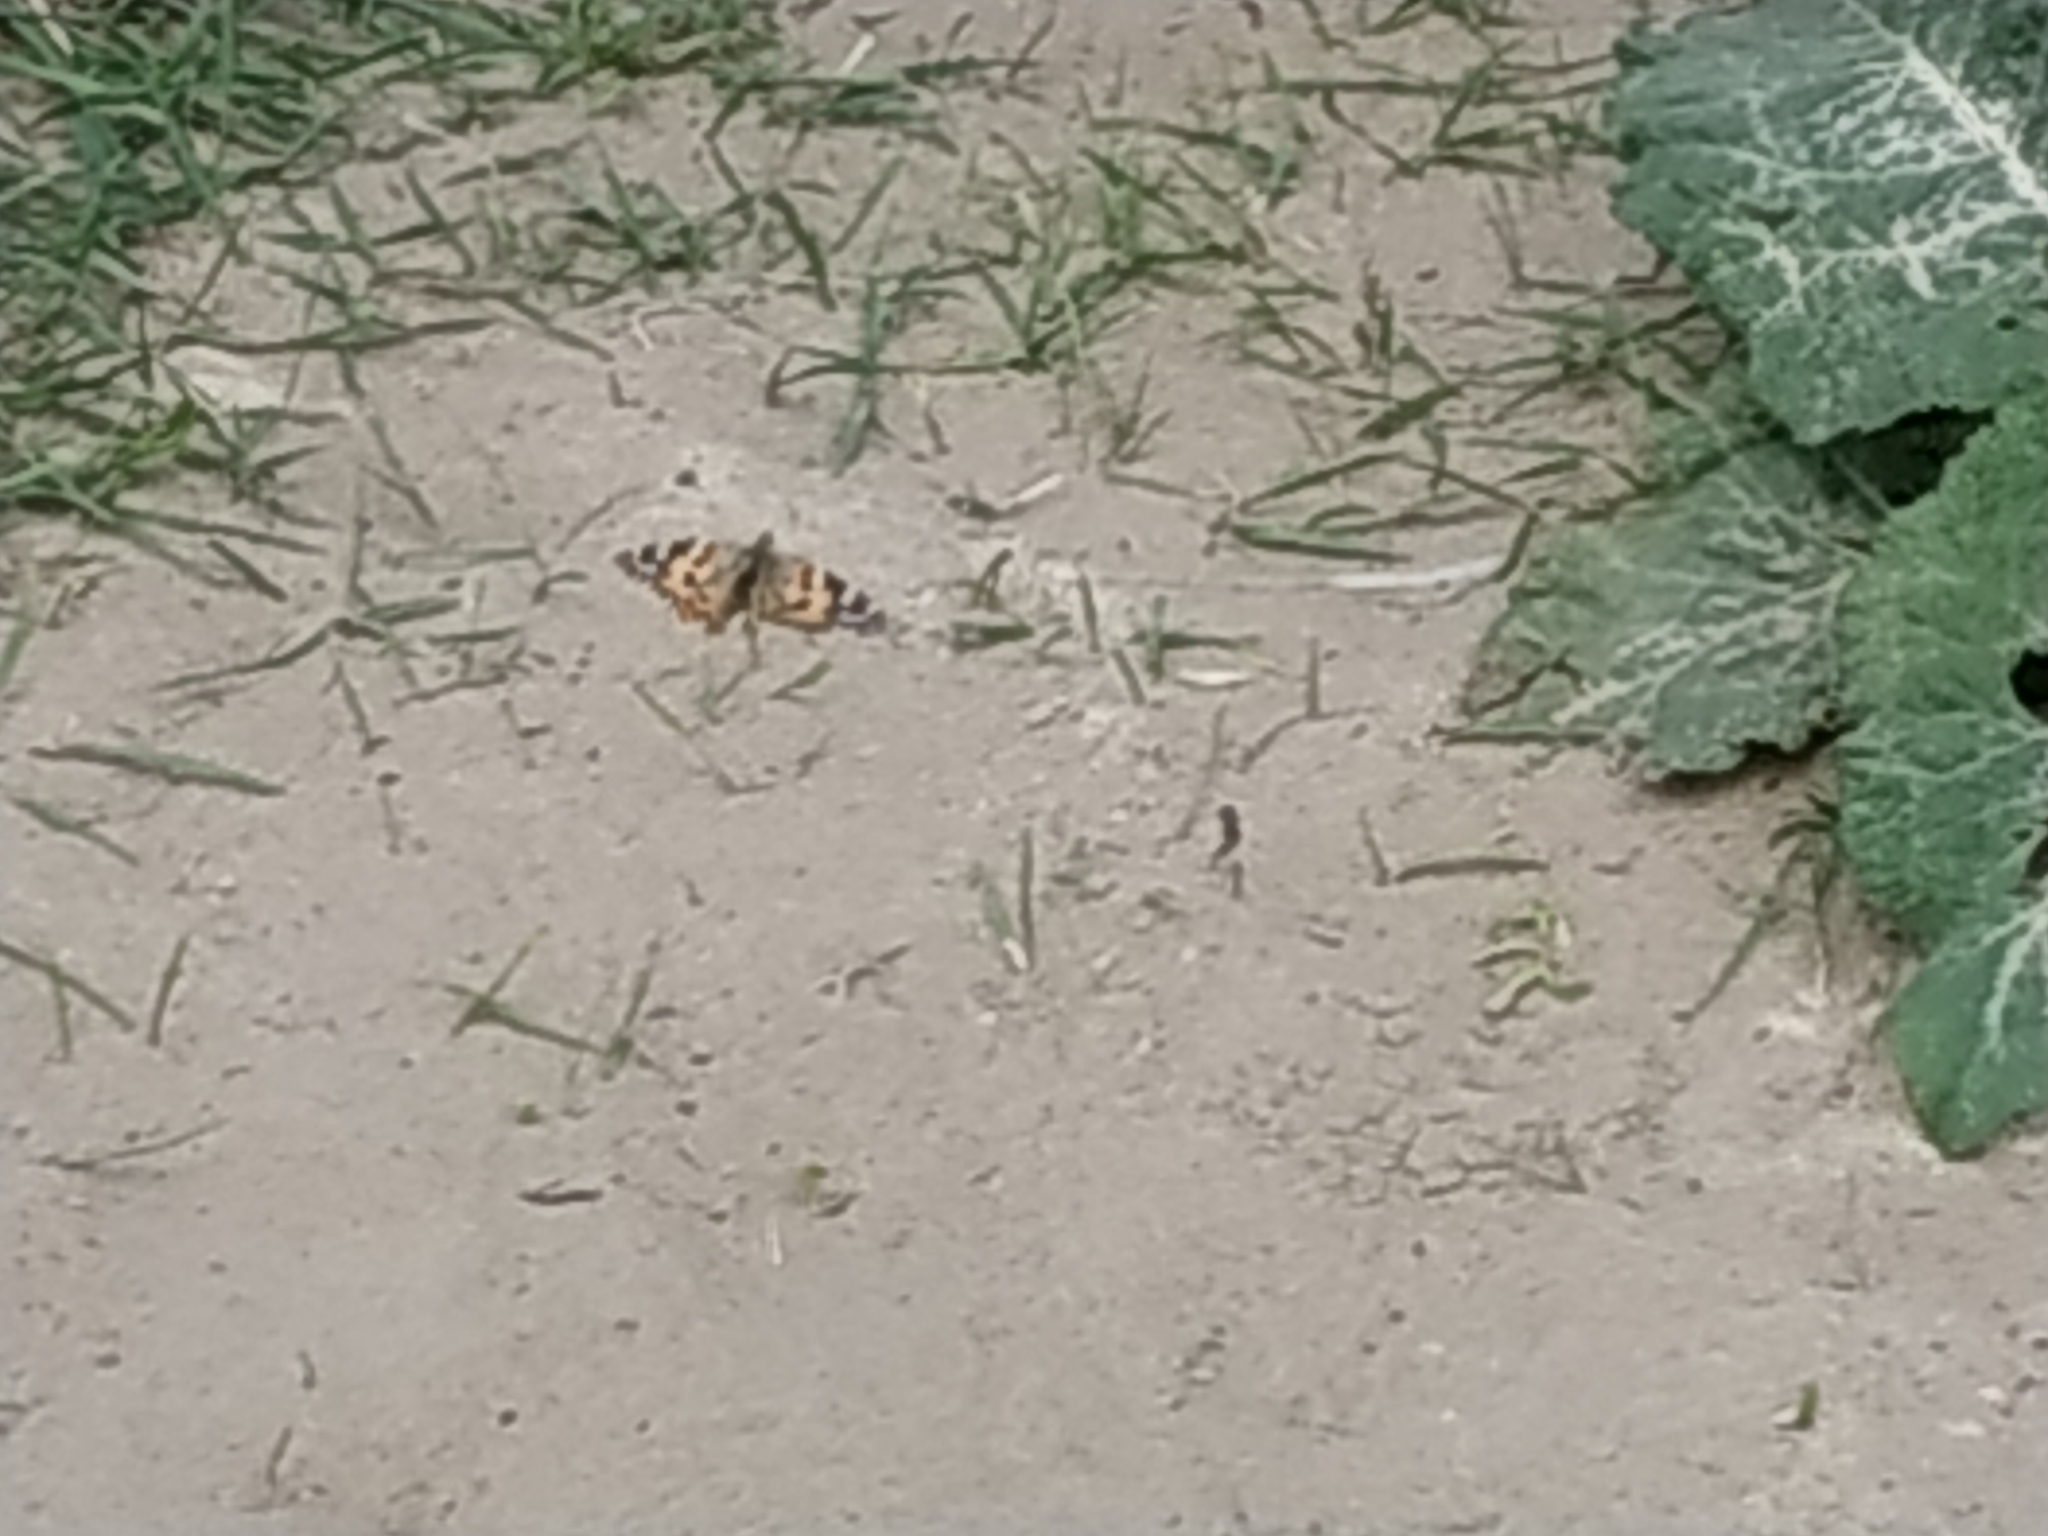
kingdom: Animalia
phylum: Arthropoda
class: Insecta
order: Lepidoptera
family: Nymphalidae
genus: Vanessa
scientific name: Vanessa cardui
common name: Painted lady
